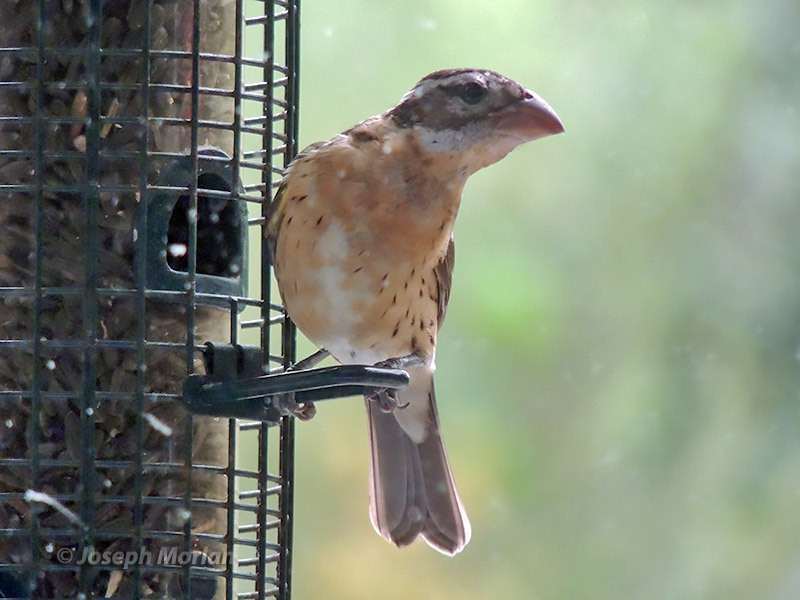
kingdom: Animalia
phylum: Chordata
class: Aves
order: Passeriformes
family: Cardinalidae
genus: Pheucticus
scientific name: Pheucticus melanocephalus
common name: Black-headed grosbeak
